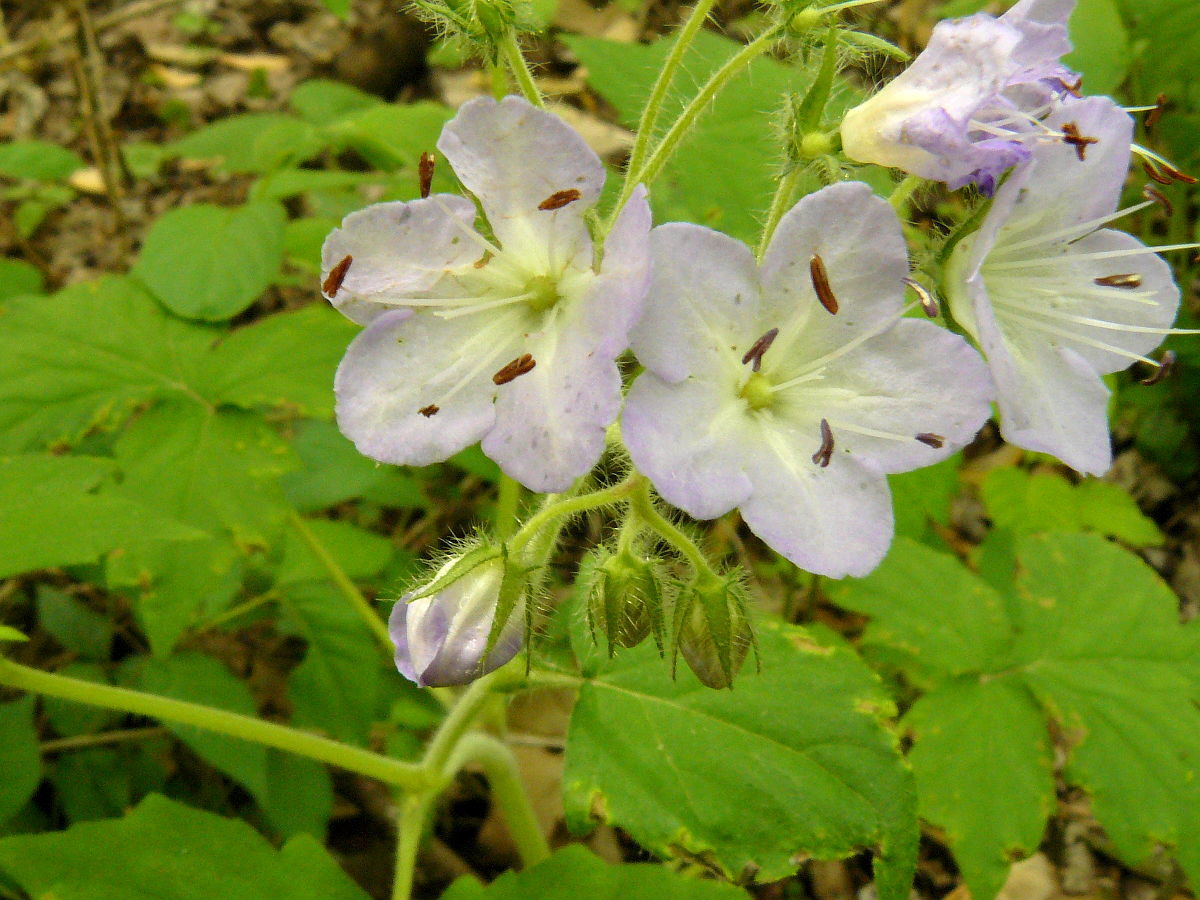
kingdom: Plantae
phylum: Tracheophyta
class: Magnoliopsida
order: Boraginales
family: Hydrophyllaceae
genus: Hydrophyllum
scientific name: Hydrophyllum appendiculatum
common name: Appendaged waterleaf
